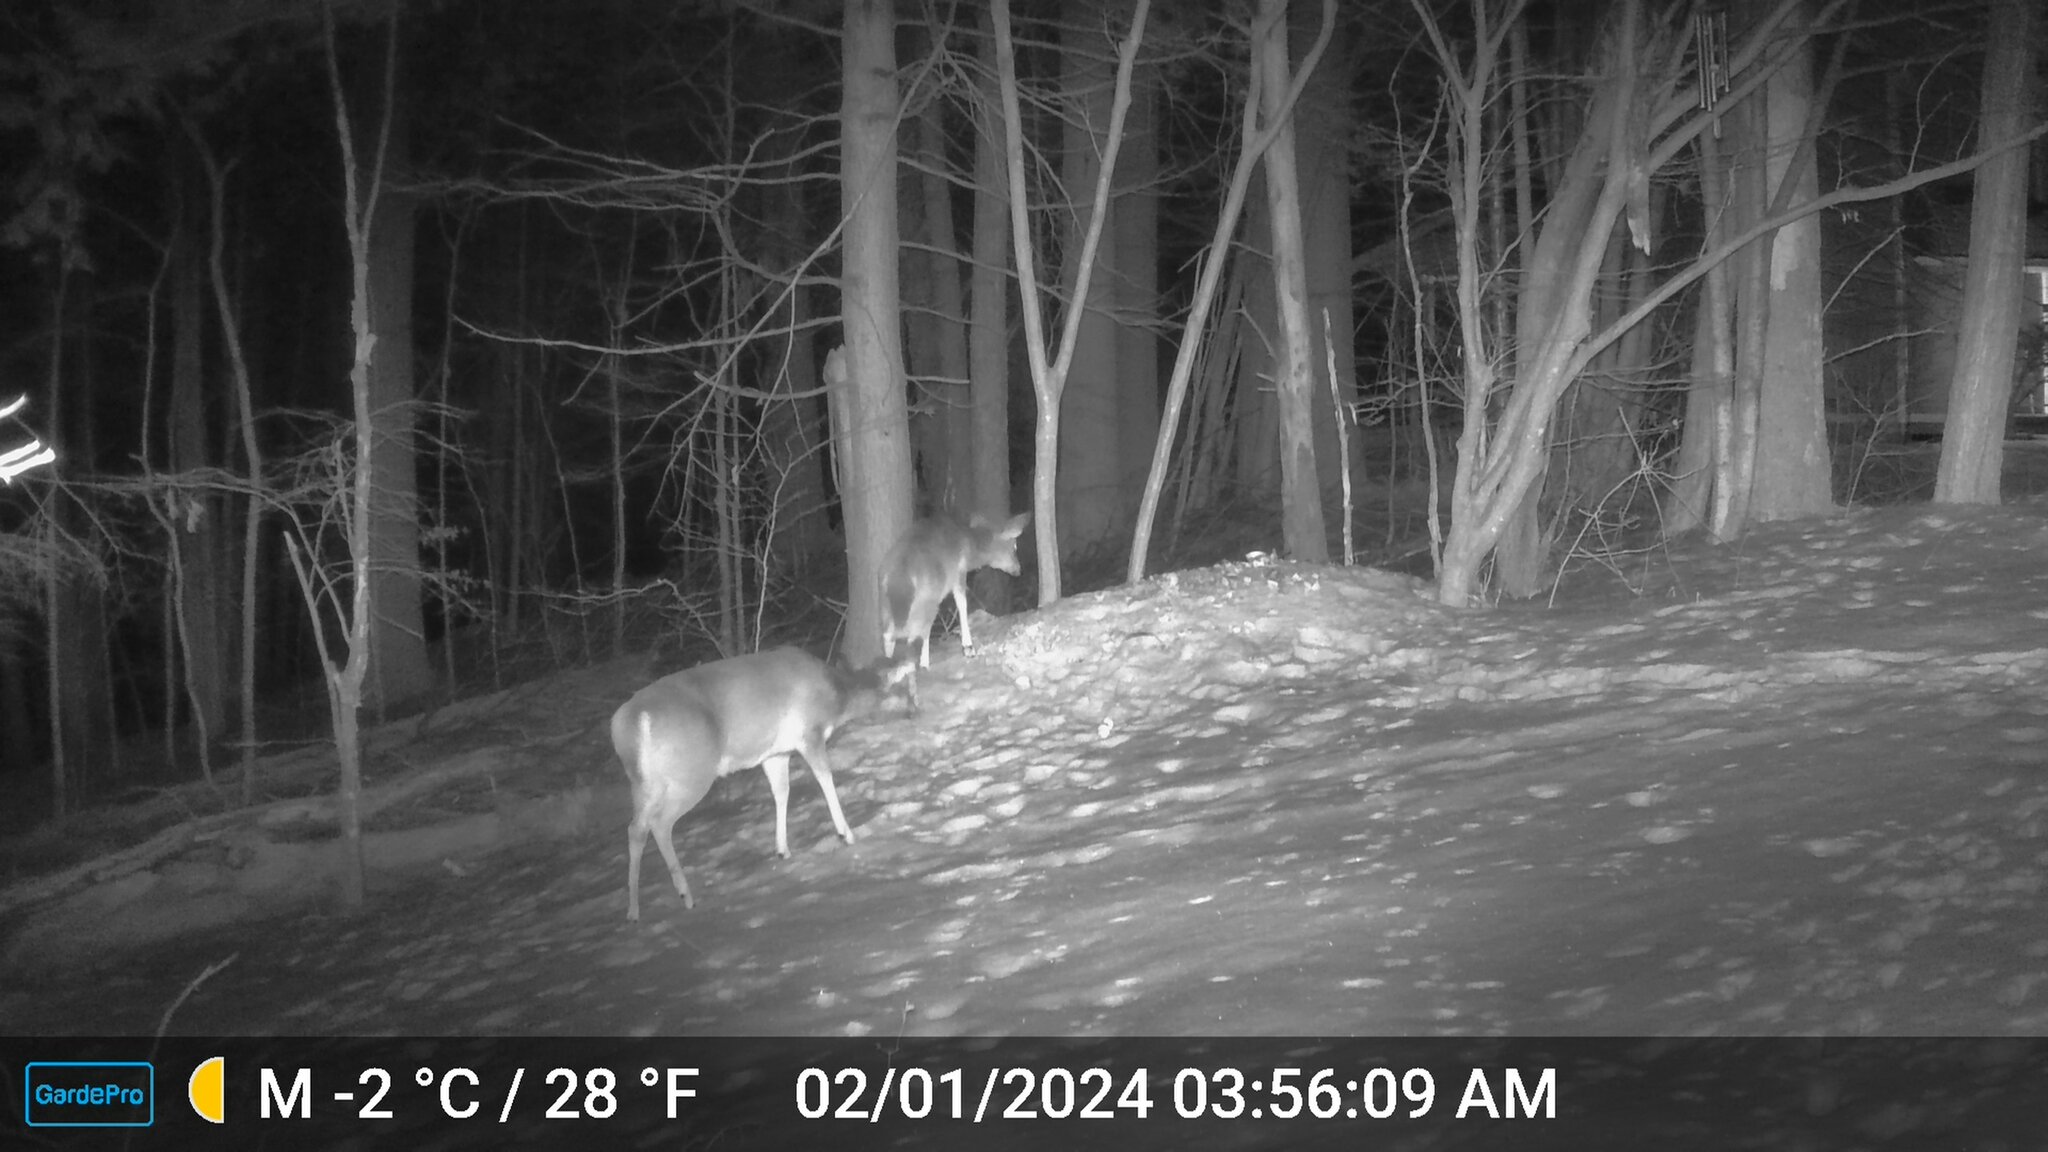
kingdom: Animalia
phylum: Chordata
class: Mammalia
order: Artiodactyla
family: Cervidae
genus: Odocoileus
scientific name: Odocoileus virginianus
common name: White-tailed deer
